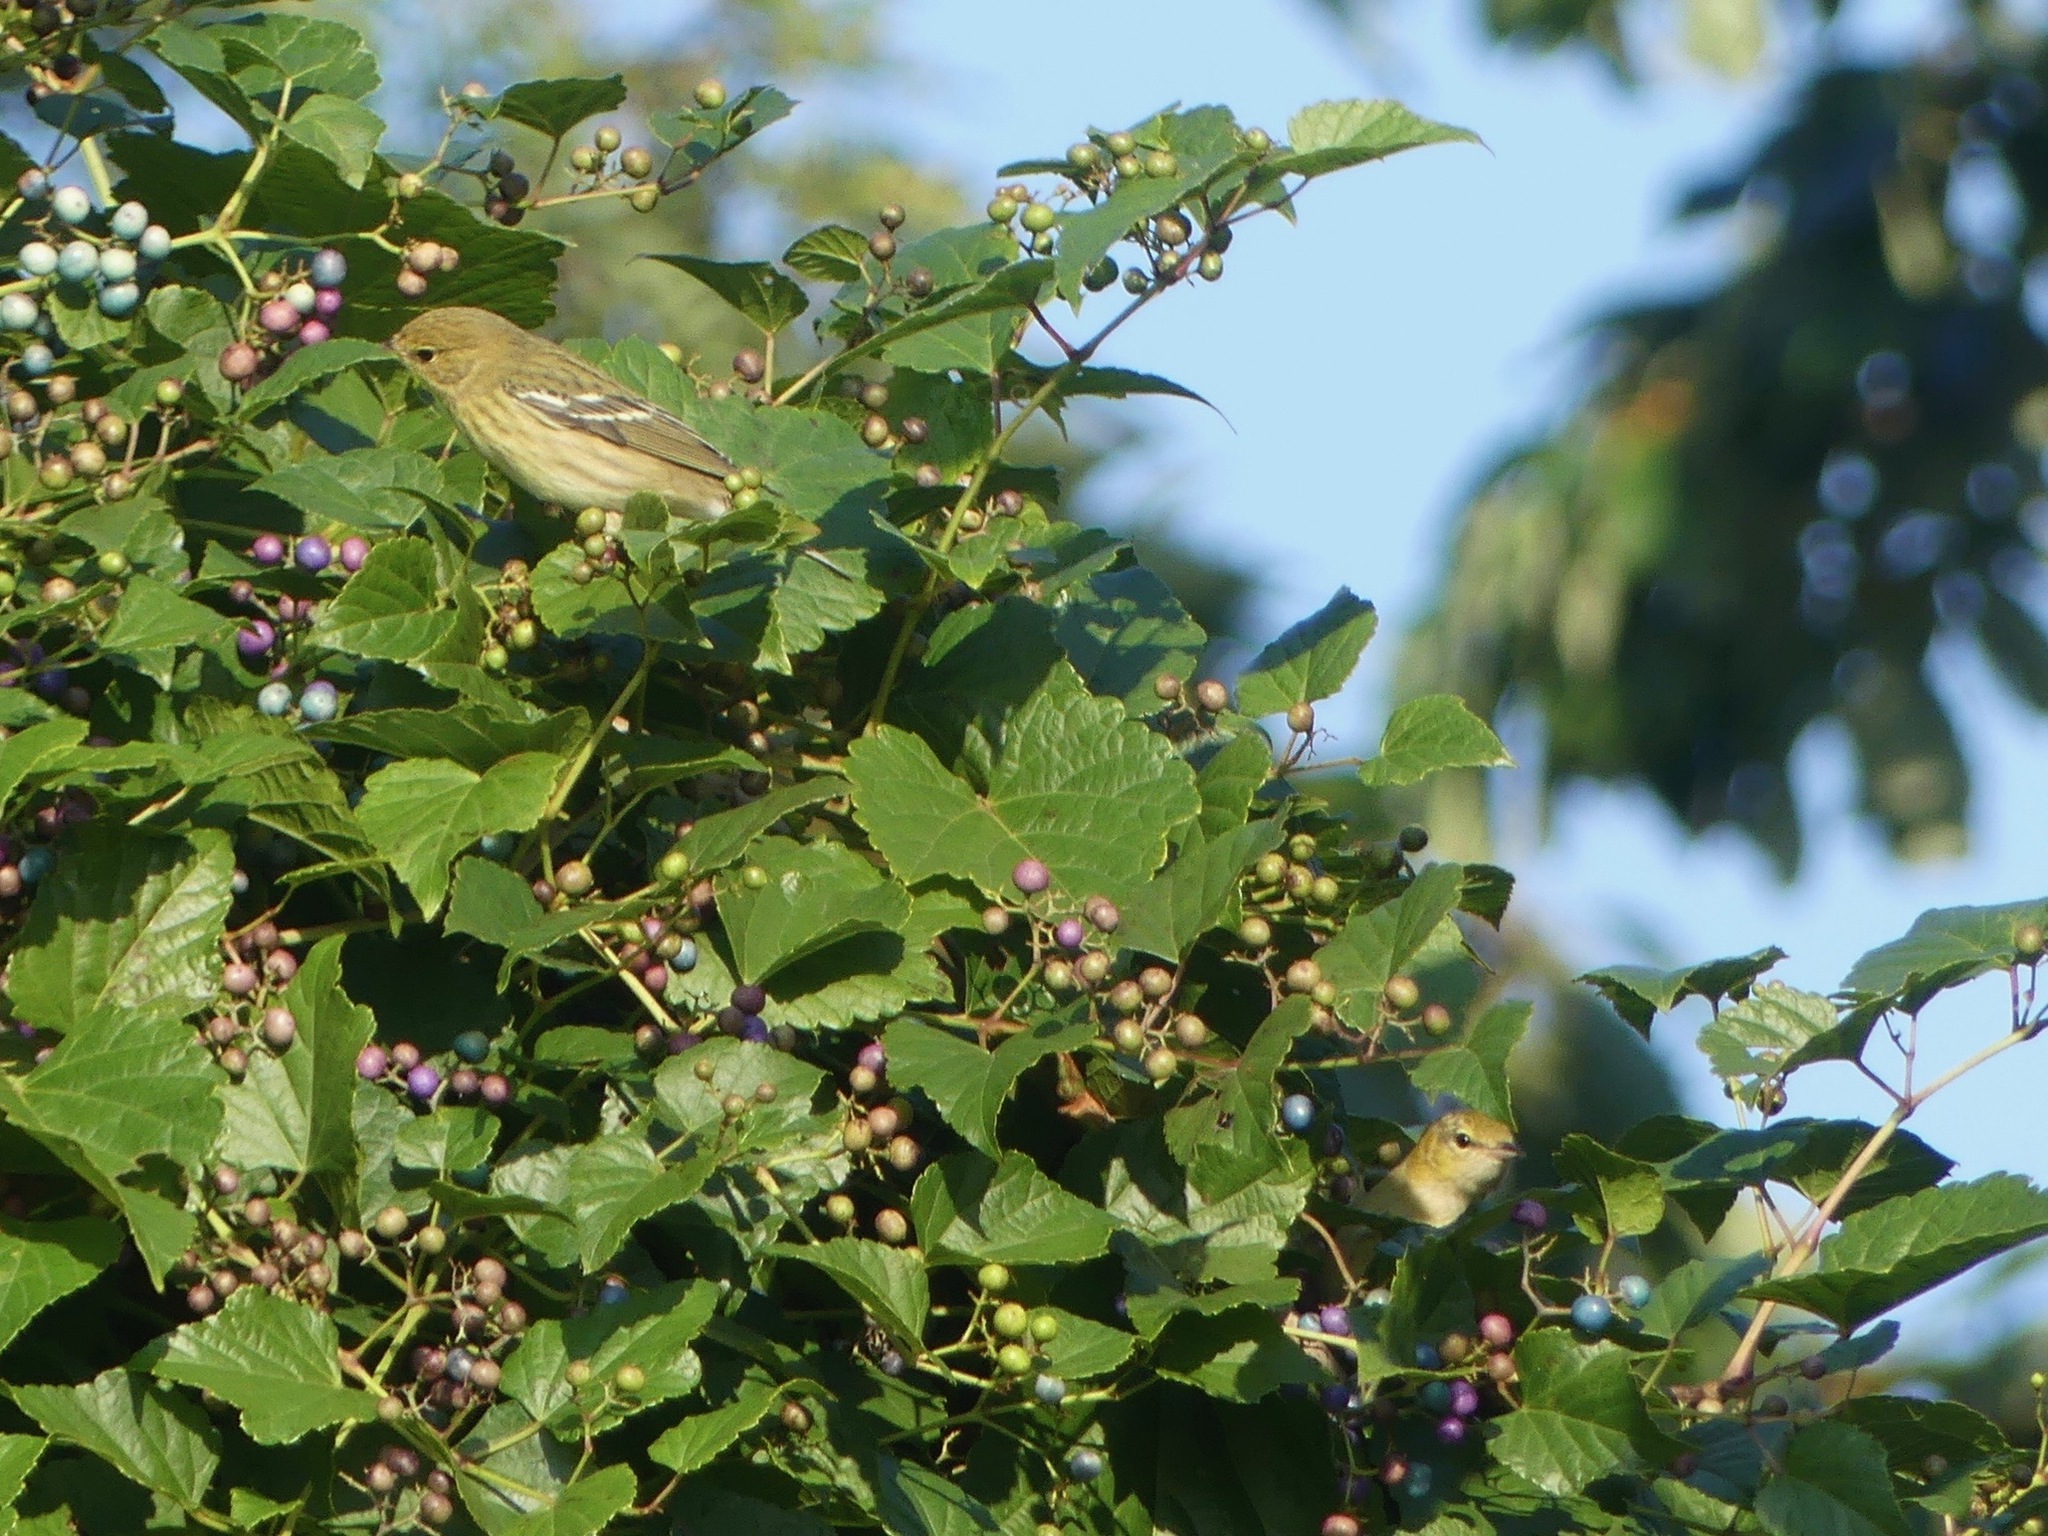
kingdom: Animalia
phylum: Chordata
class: Aves
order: Passeriformes
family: Parulidae
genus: Setophaga
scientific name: Setophaga striata
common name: Blackpoll warbler
